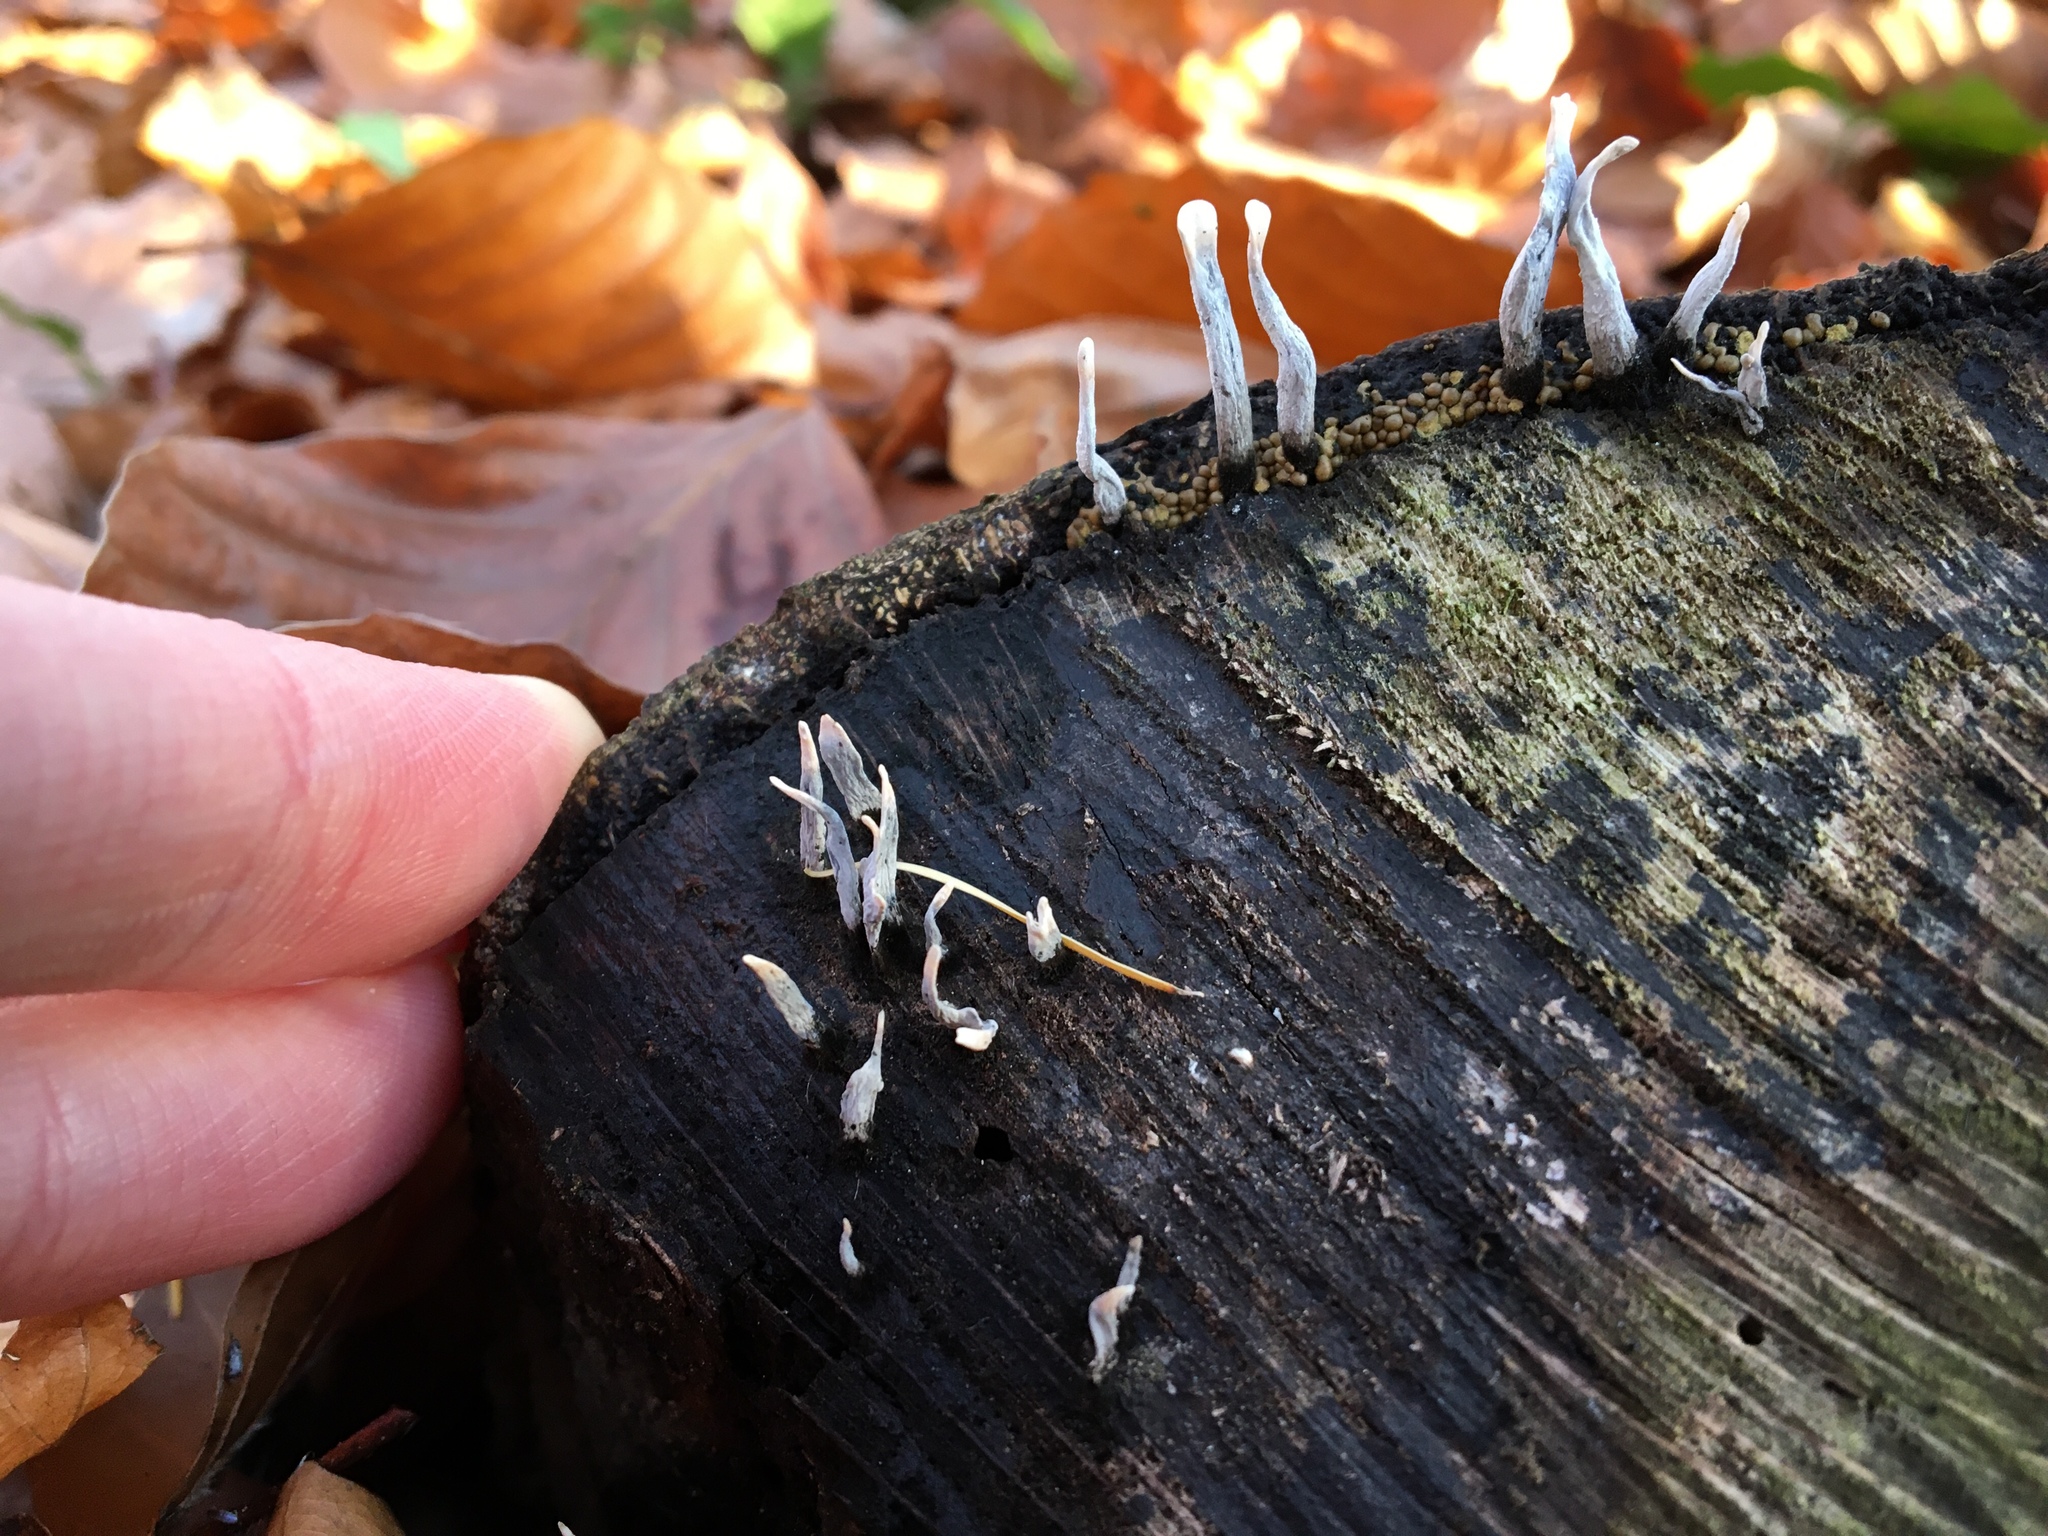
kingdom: Fungi
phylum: Ascomycota
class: Sordariomycetes
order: Xylariales
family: Xylariaceae
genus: Xylaria
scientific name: Xylaria hypoxylon
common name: Candle-snuff fungus
